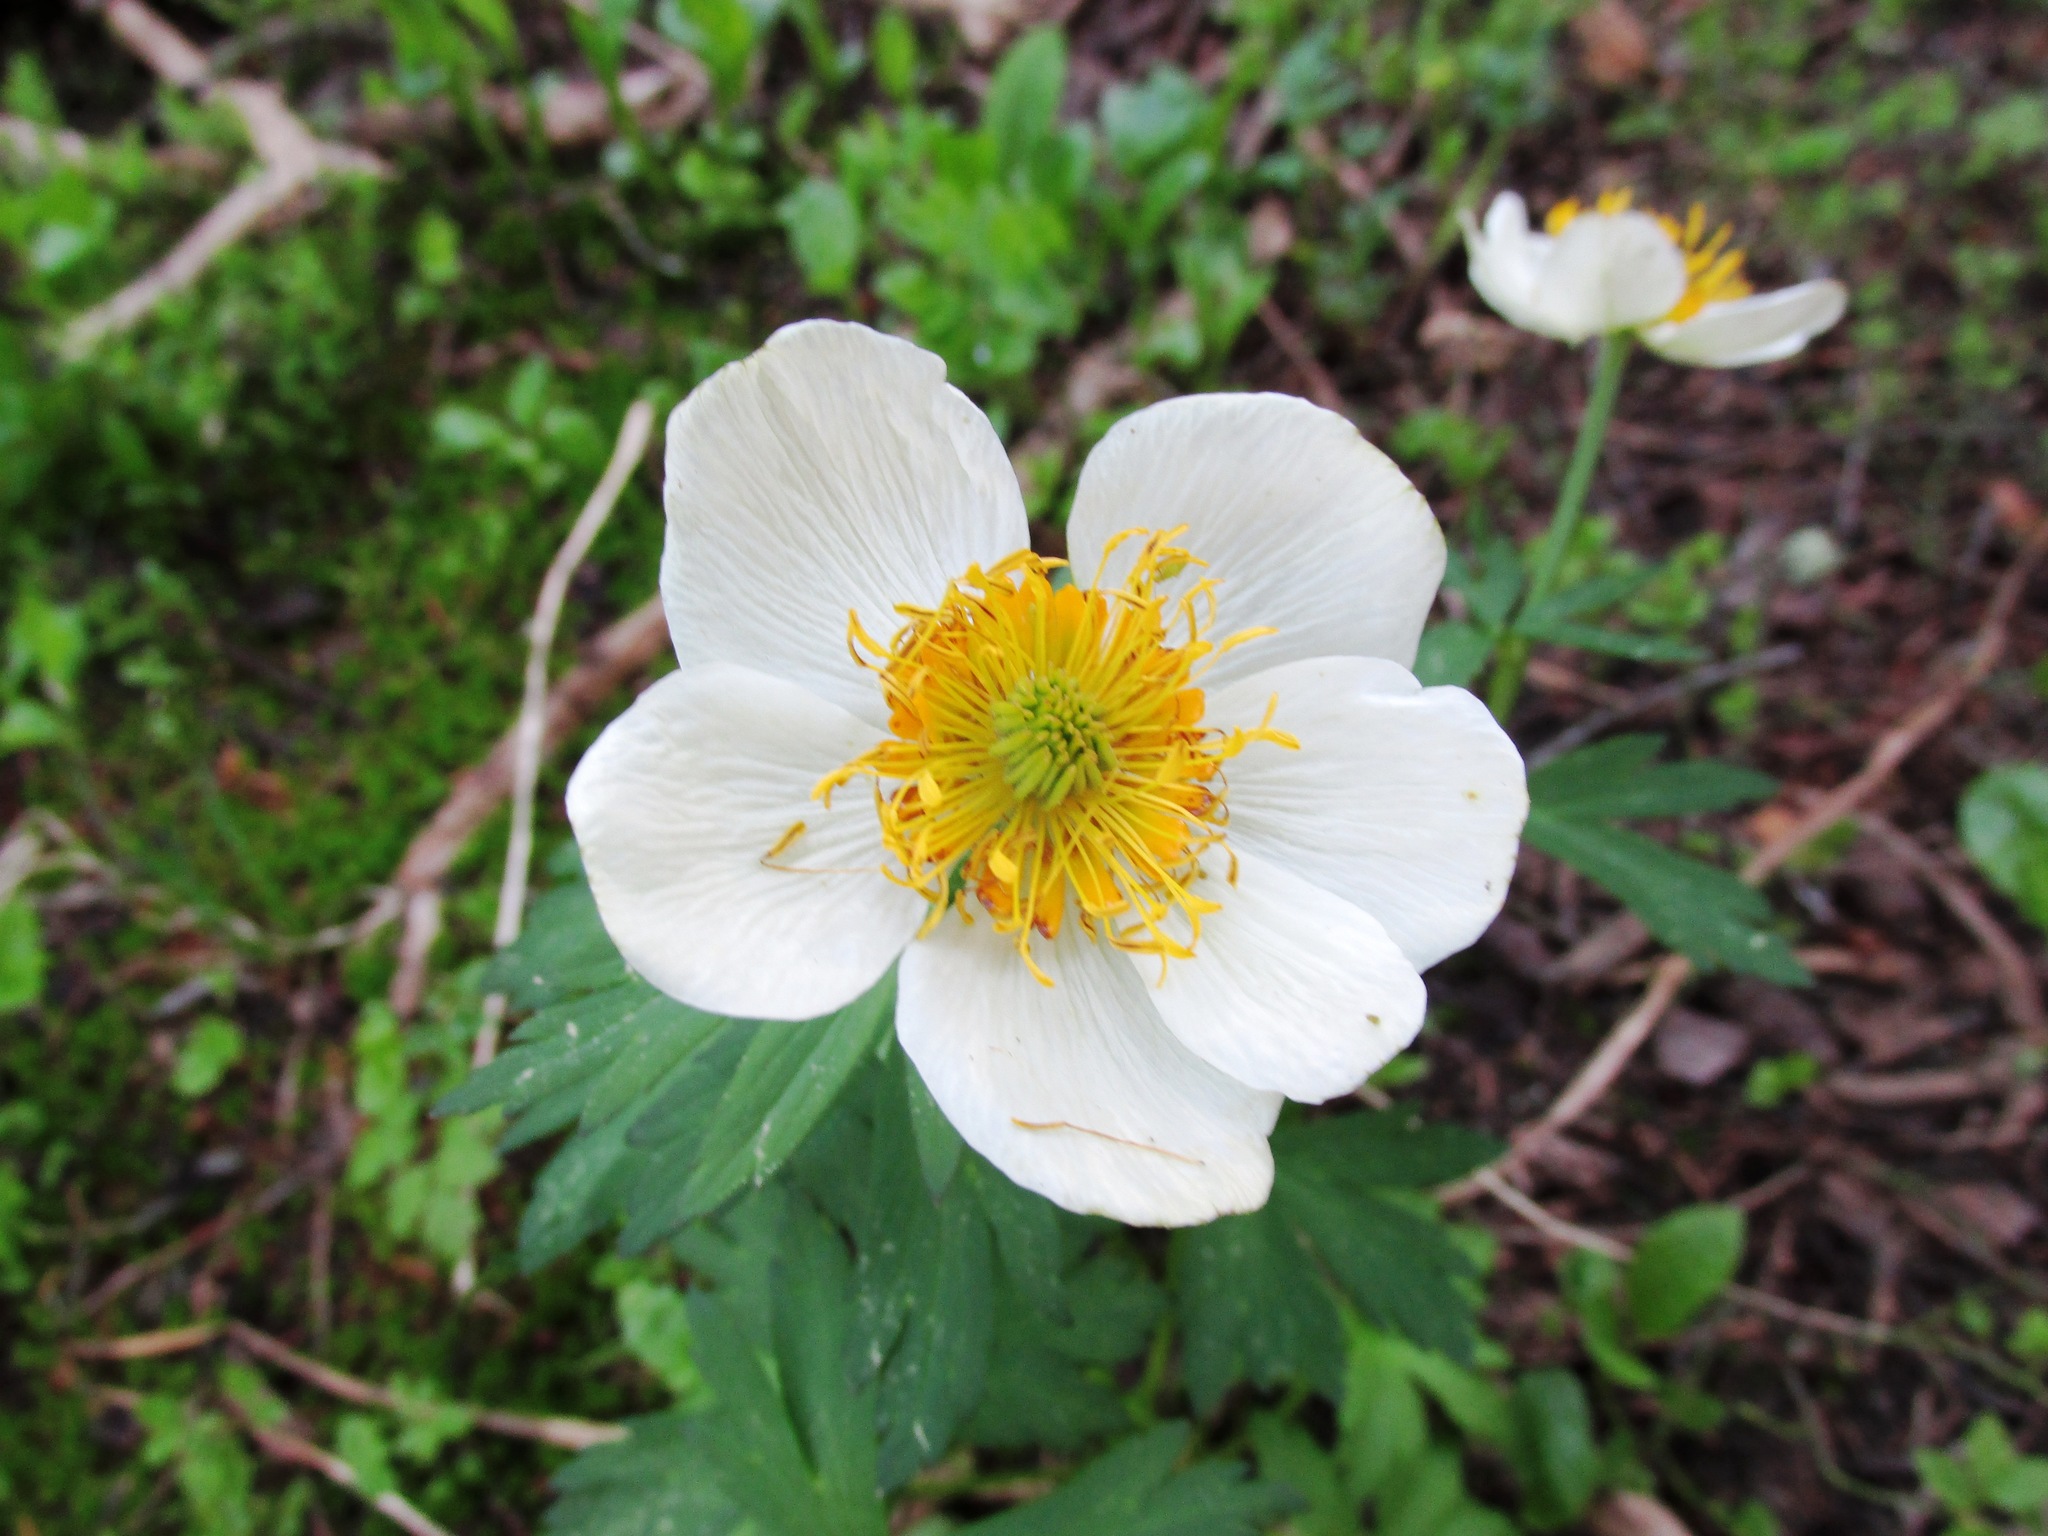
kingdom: Plantae
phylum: Tracheophyta
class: Magnoliopsida
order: Ranunculales
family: Ranunculaceae
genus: Trollius
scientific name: Trollius laxus
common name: American globeflower
